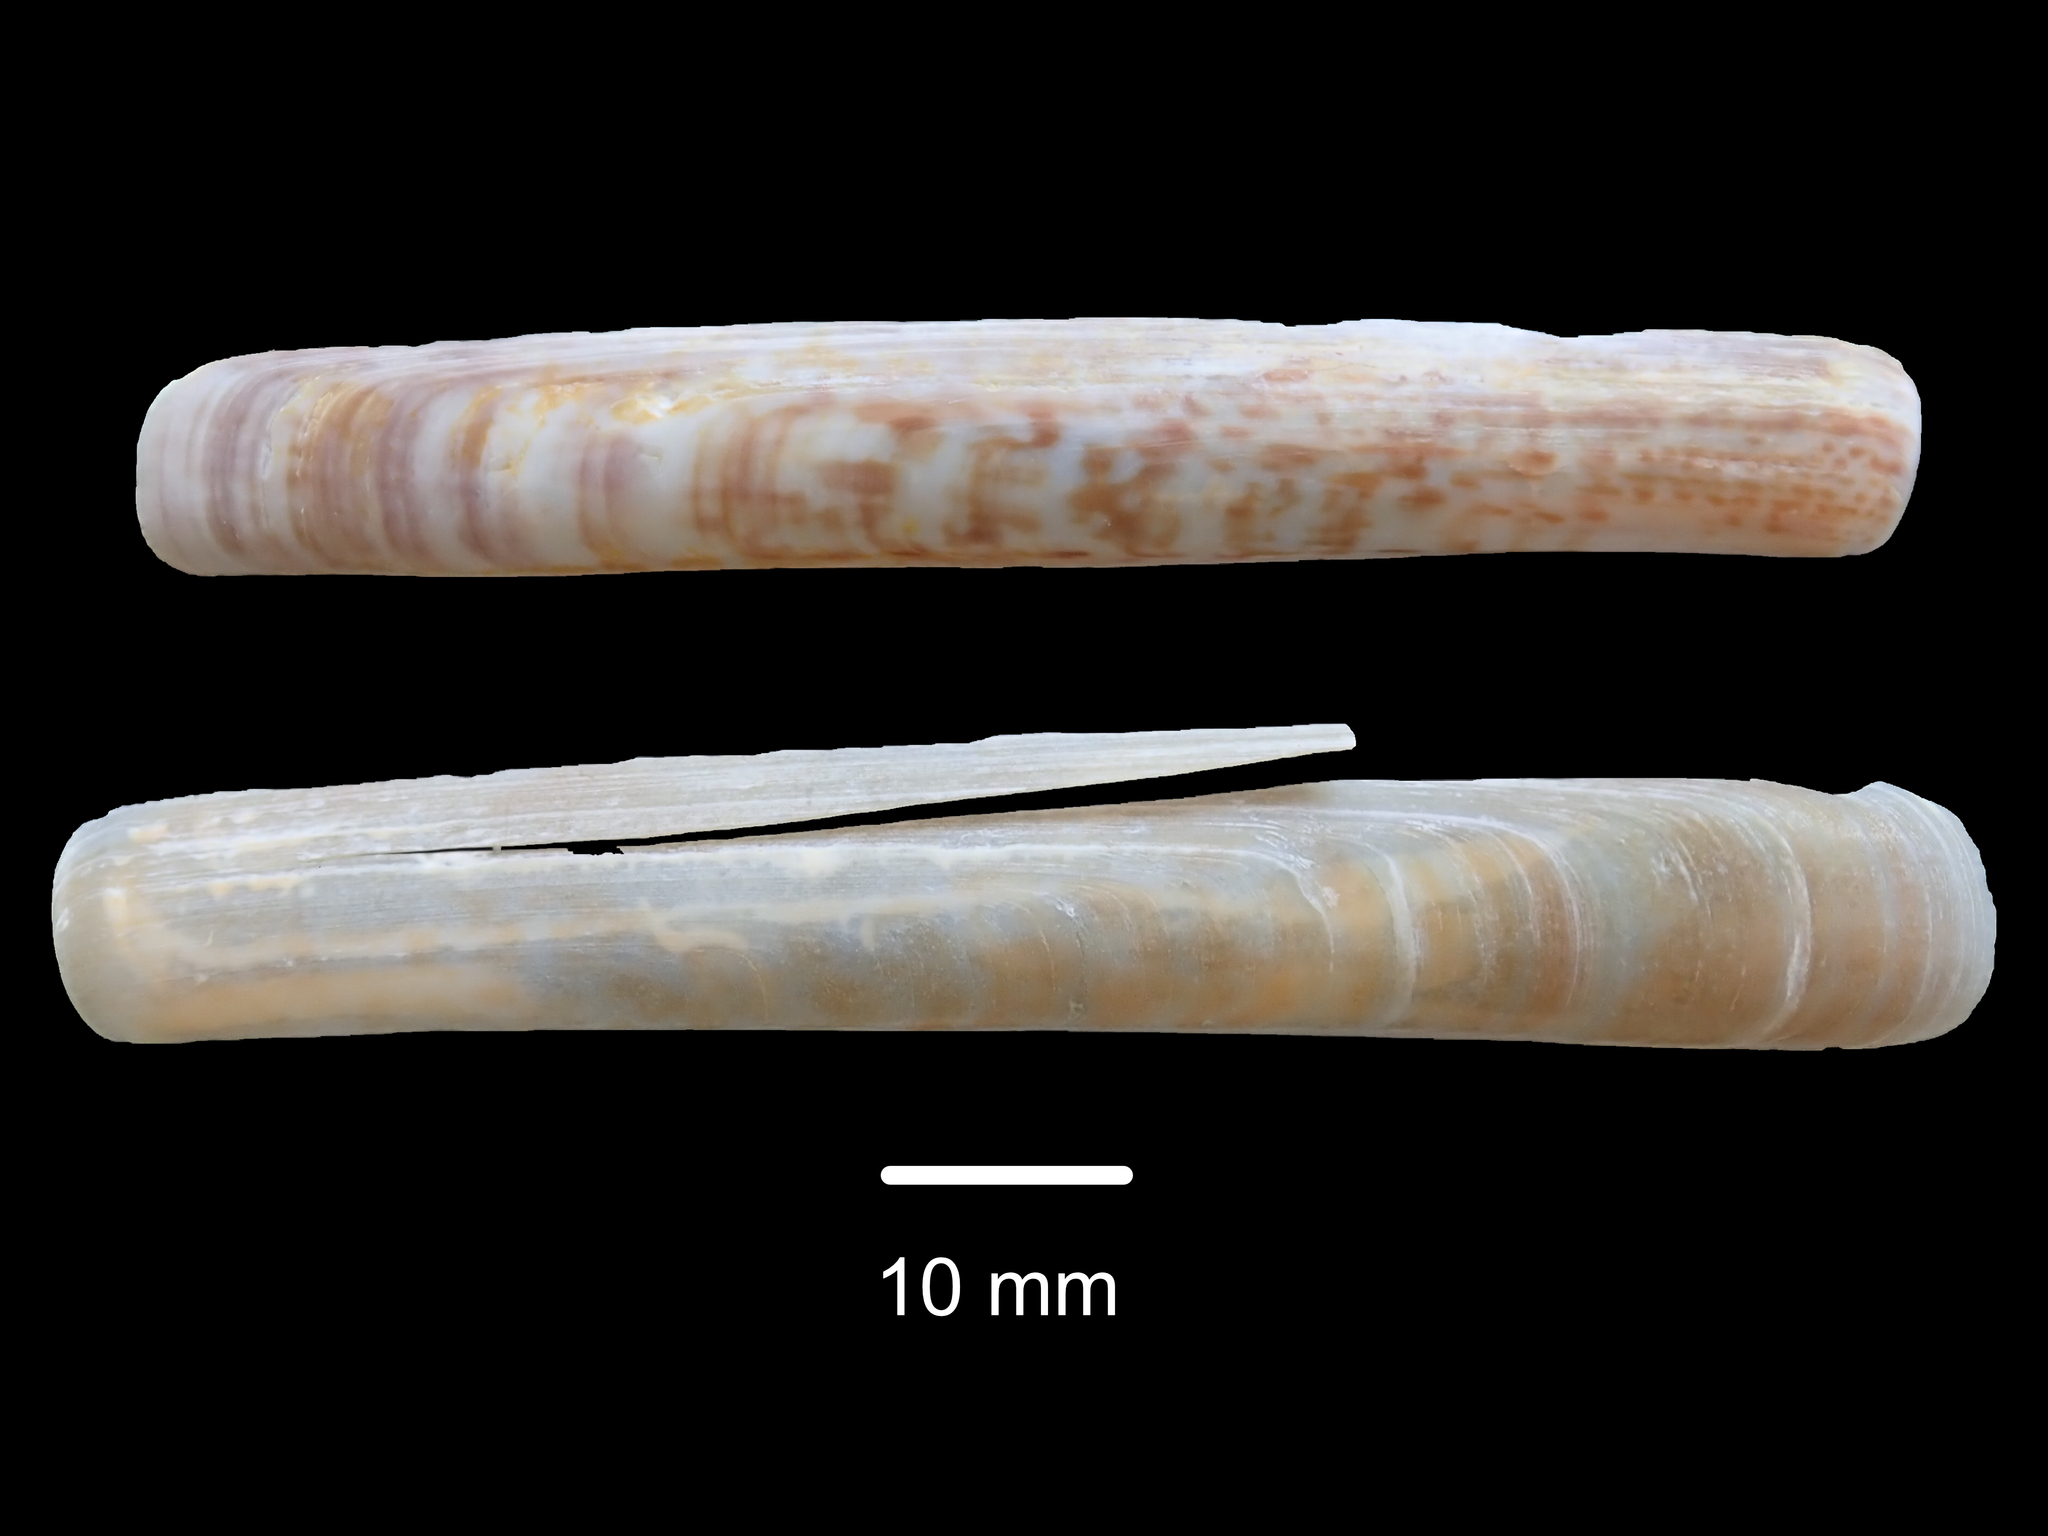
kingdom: Animalia
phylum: Mollusca
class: Bivalvia
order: Adapedonta
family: Solenidae
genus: Solen
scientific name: Solen vaginoides
